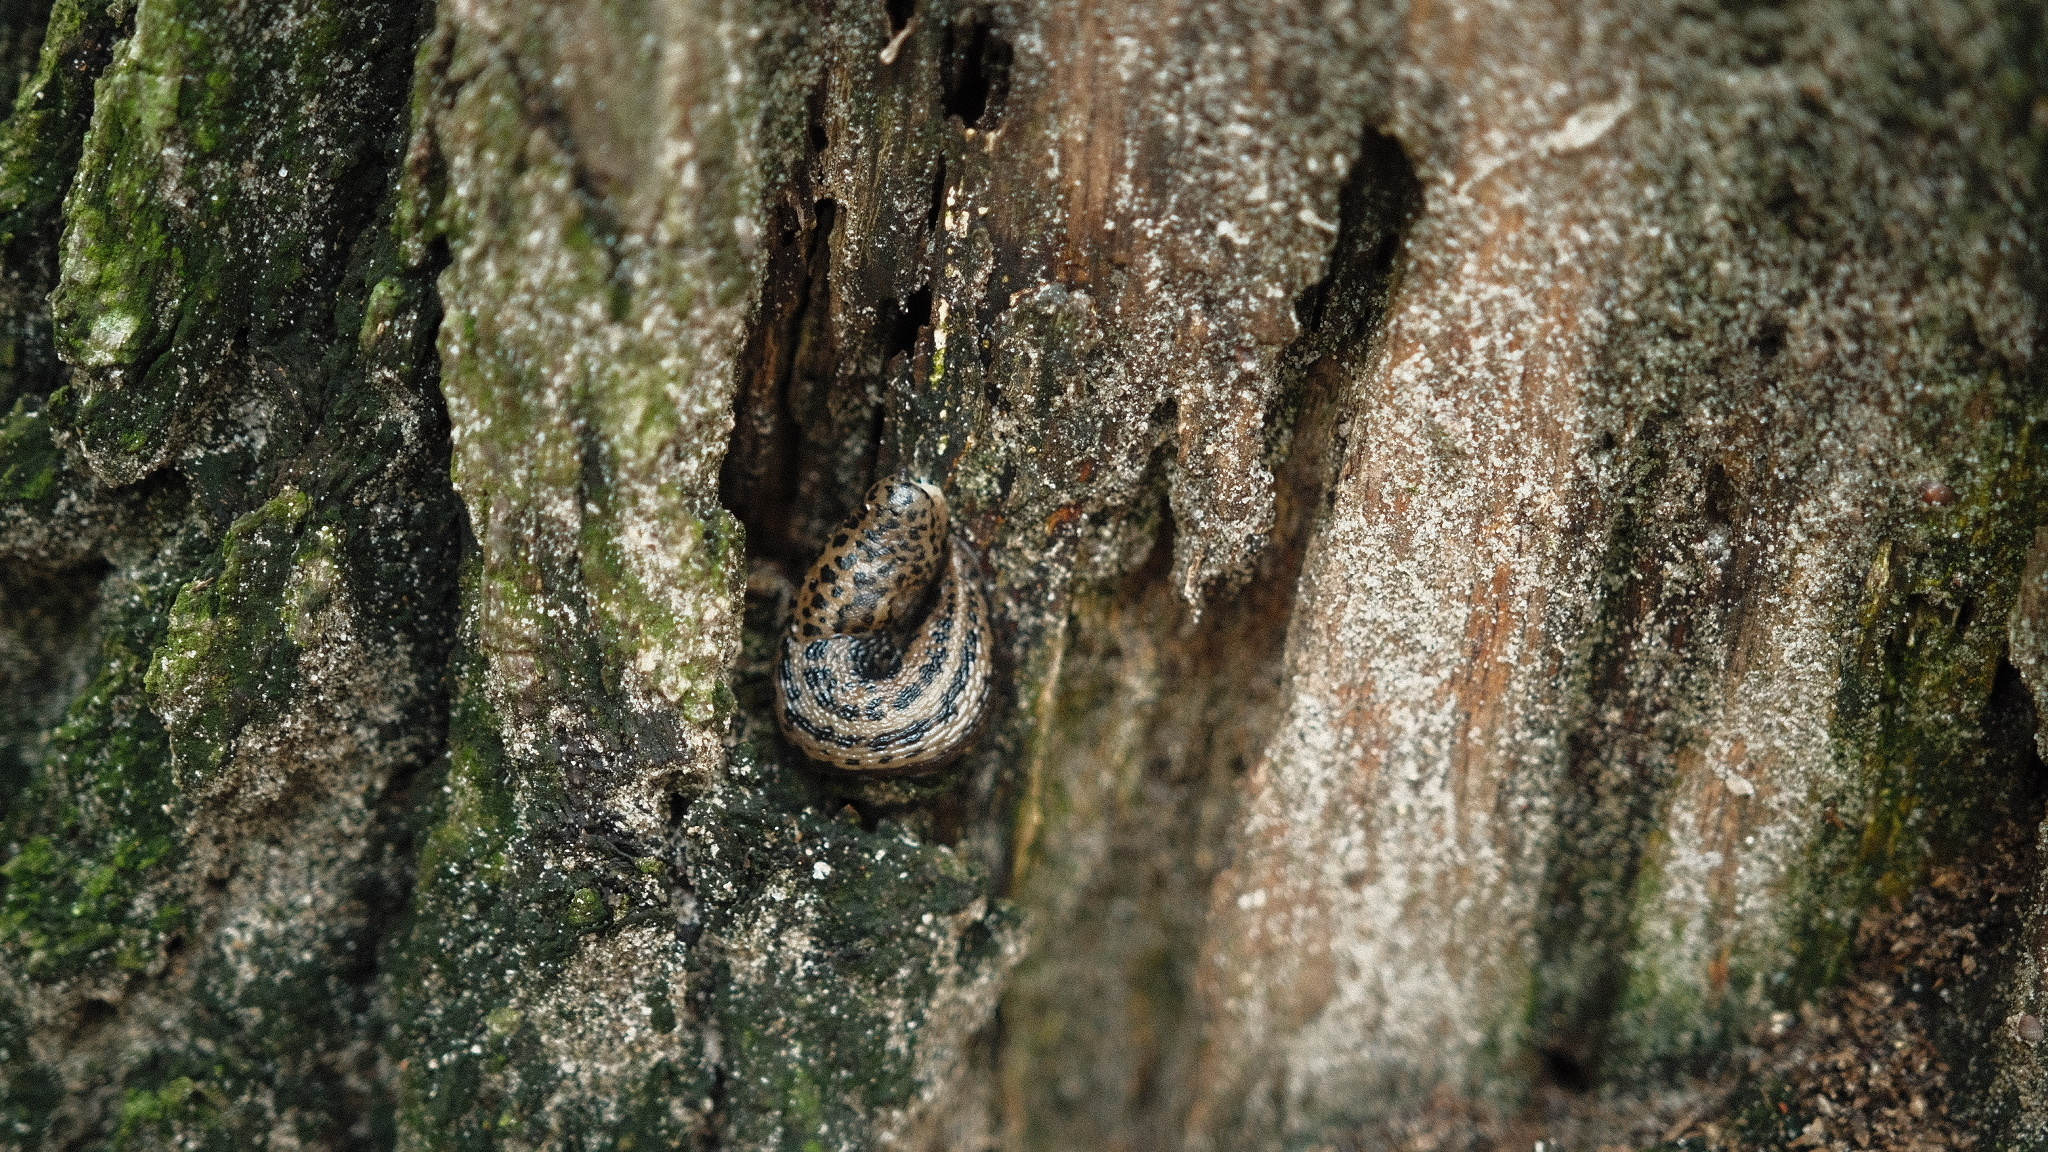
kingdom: Animalia
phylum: Mollusca
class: Gastropoda
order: Stylommatophora
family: Limacidae
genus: Limax
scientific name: Limax maximus
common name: Great grey slug
